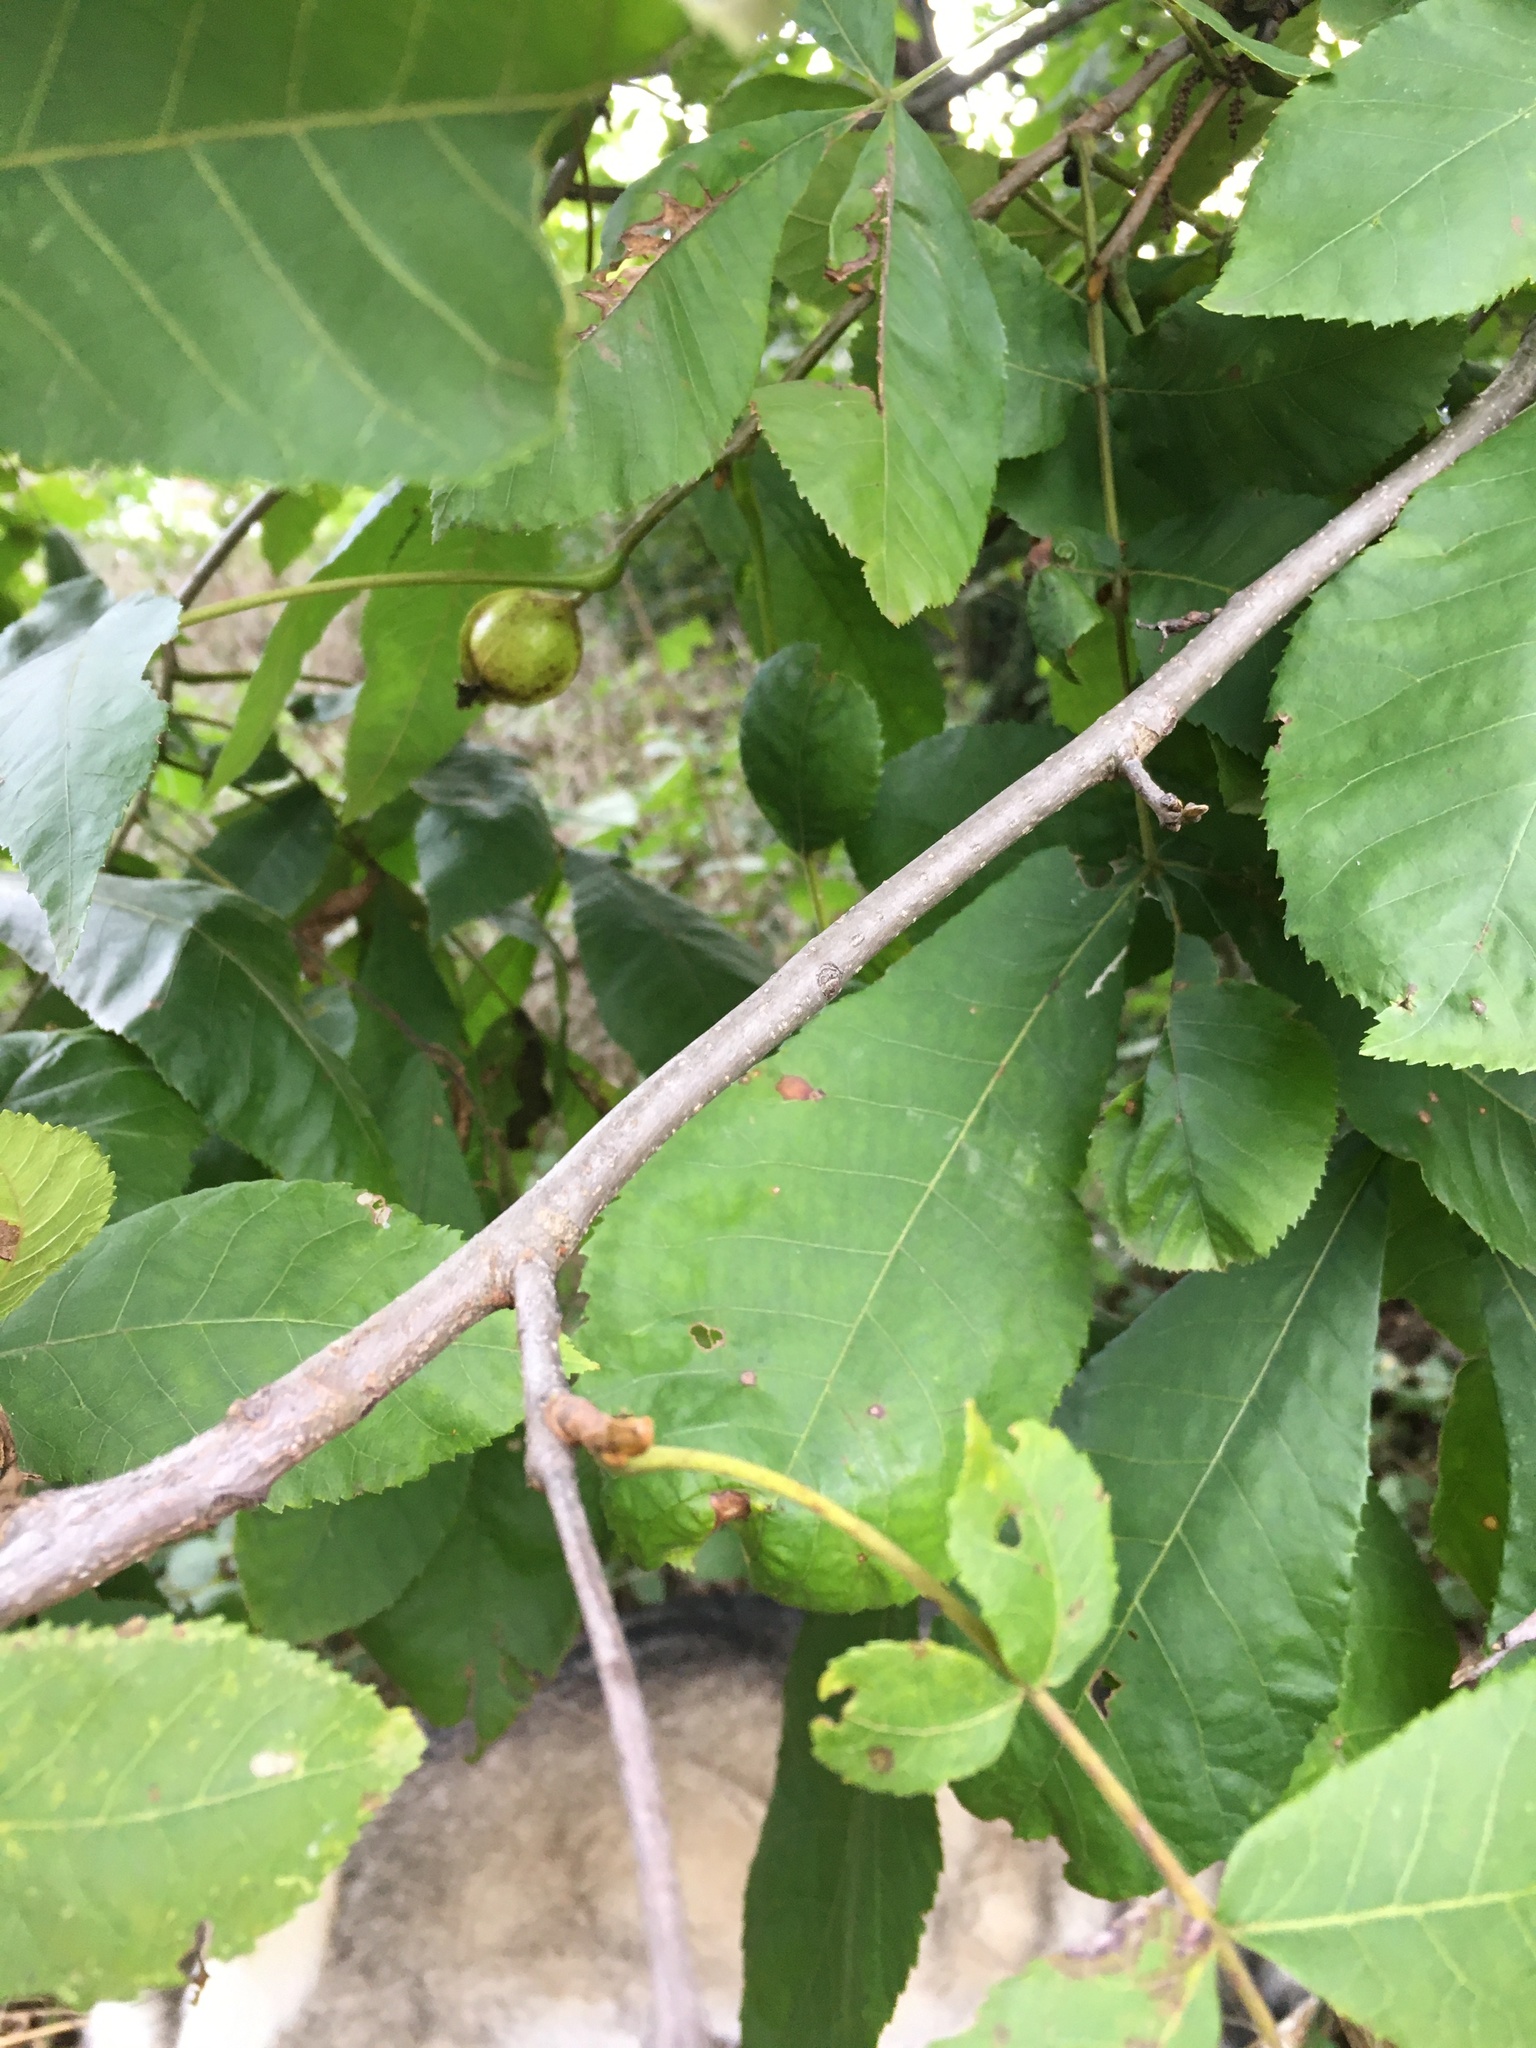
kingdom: Plantae
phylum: Tracheophyta
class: Magnoliopsida
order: Fagales
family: Juglandaceae
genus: Carya
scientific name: Carya cordiformis
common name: Bitternut hickory
